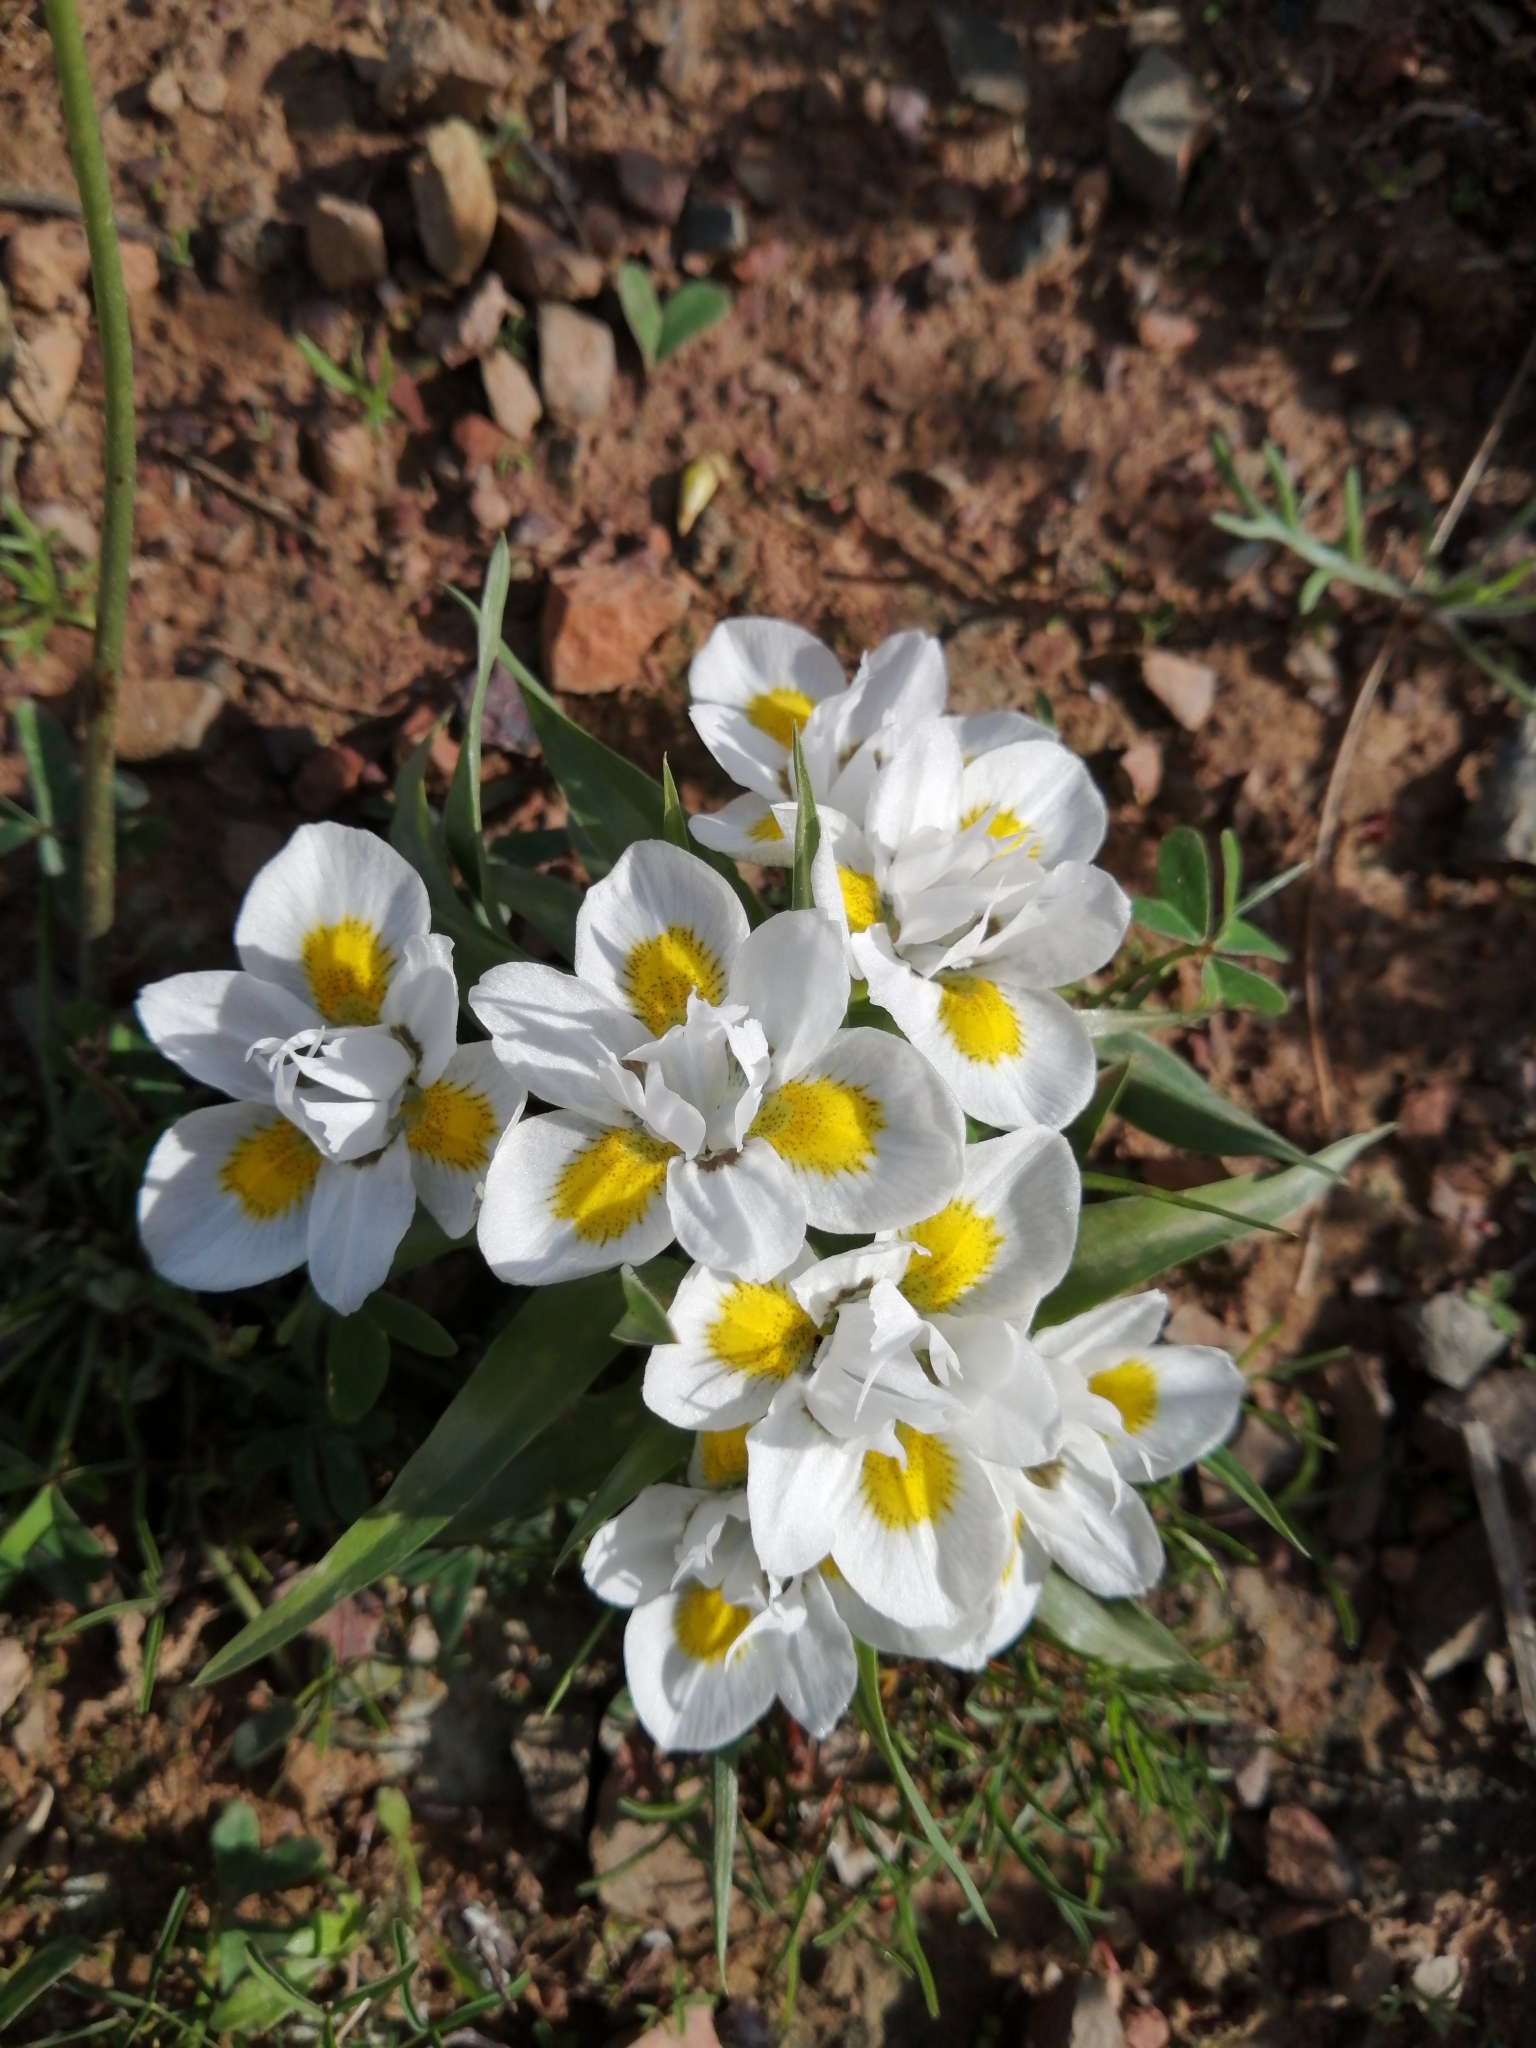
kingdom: Plantae
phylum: Tracheophyta
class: Liliopsida
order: Asparagales
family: Iridaceae
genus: Moraea
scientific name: Moraea falcifolia
